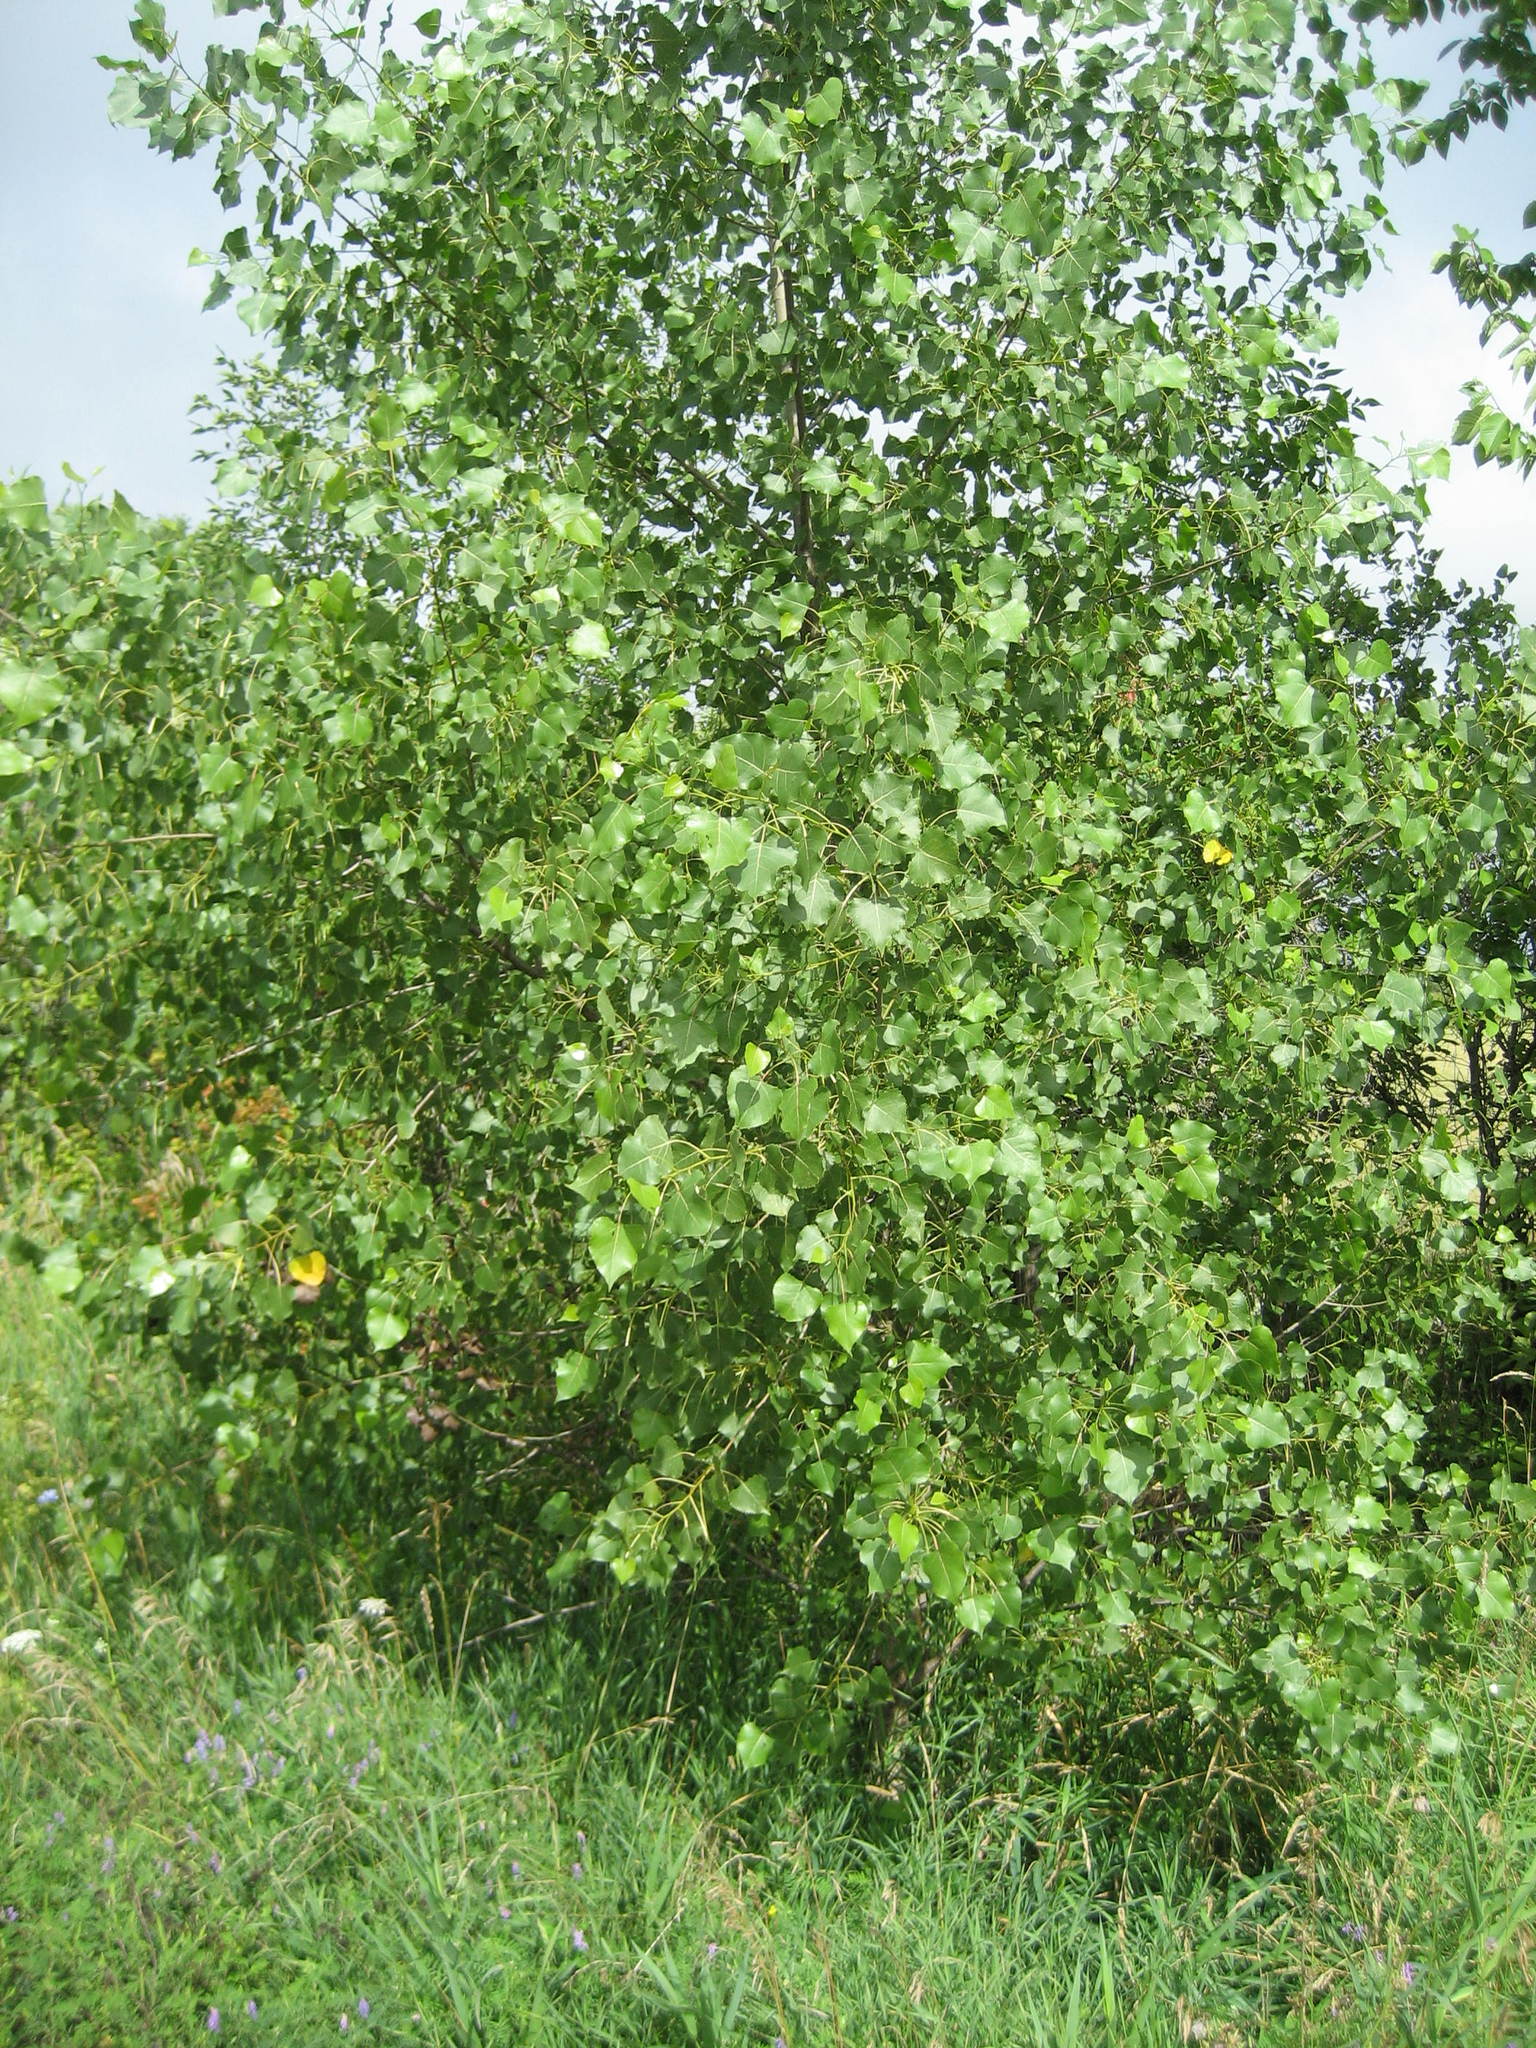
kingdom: Plantae
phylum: Tracheophyta
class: Magnoliopsida
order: Malpighiales
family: Salicaceae
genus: Populus
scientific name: Populus deltoides
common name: Eastern cottonwood
